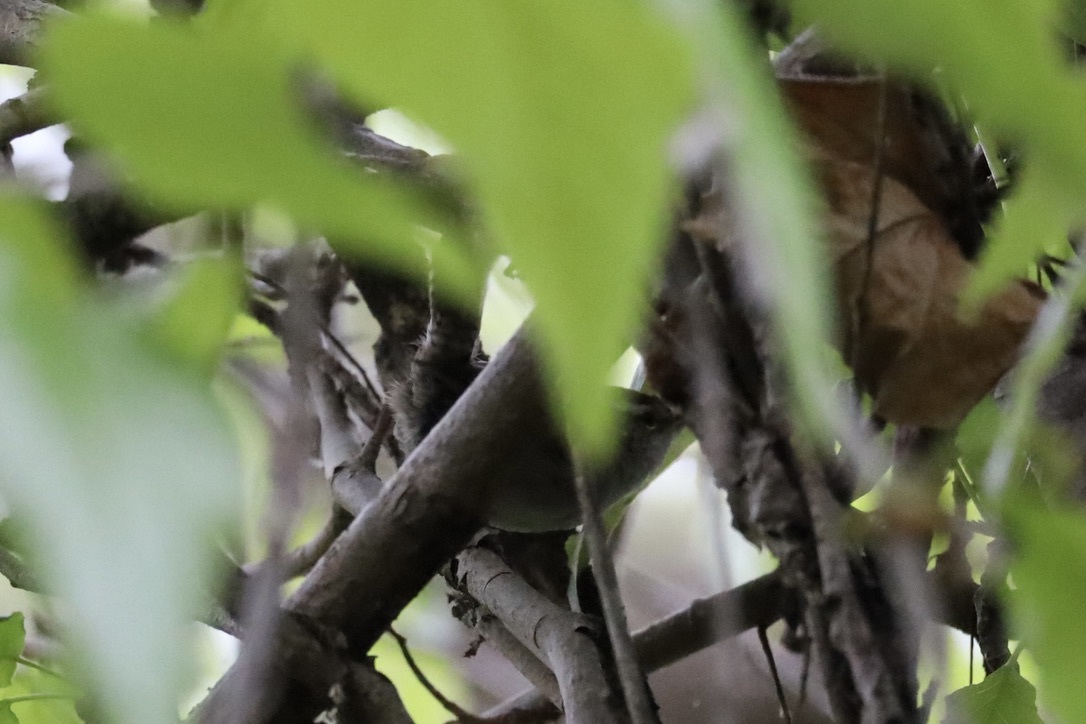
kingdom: Animalia
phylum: Chordata
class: Aves
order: Passeriformes
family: Troglodytidae
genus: Thryomanes
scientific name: Thryomanes bewickii
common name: Bewick's wren
